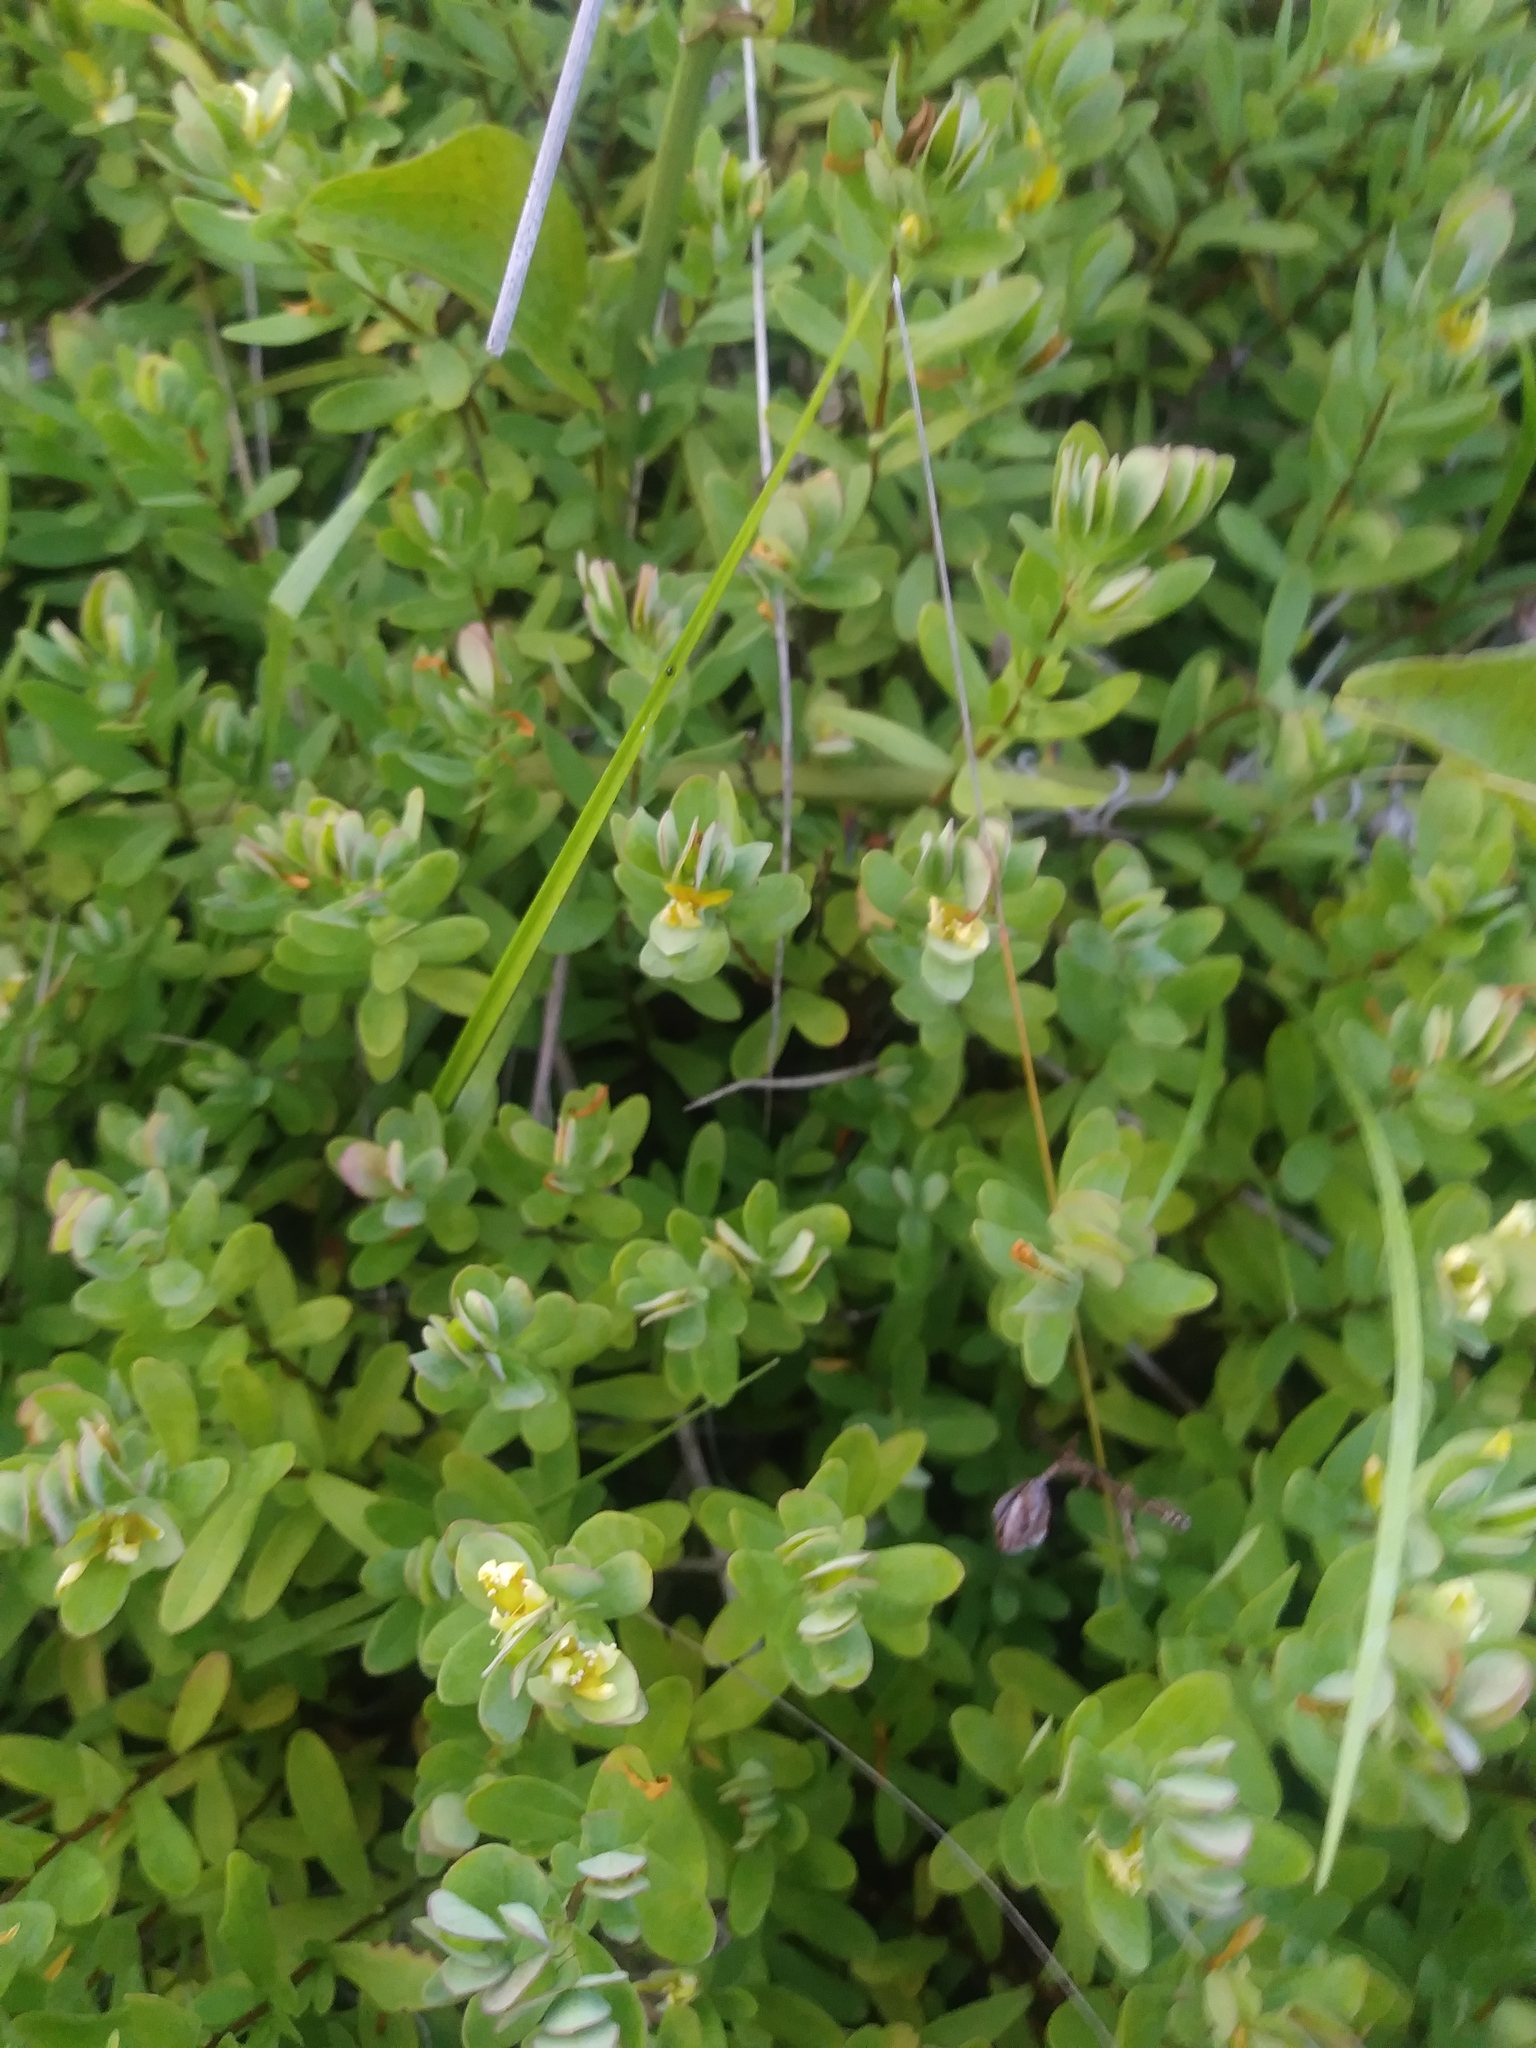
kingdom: Plantae
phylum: Tracheophyta
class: Magnoliopsida
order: Malpighiales
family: Hypericaceae
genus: Hypericum
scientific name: Hypericum hypericoides
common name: St. andrew's cross
